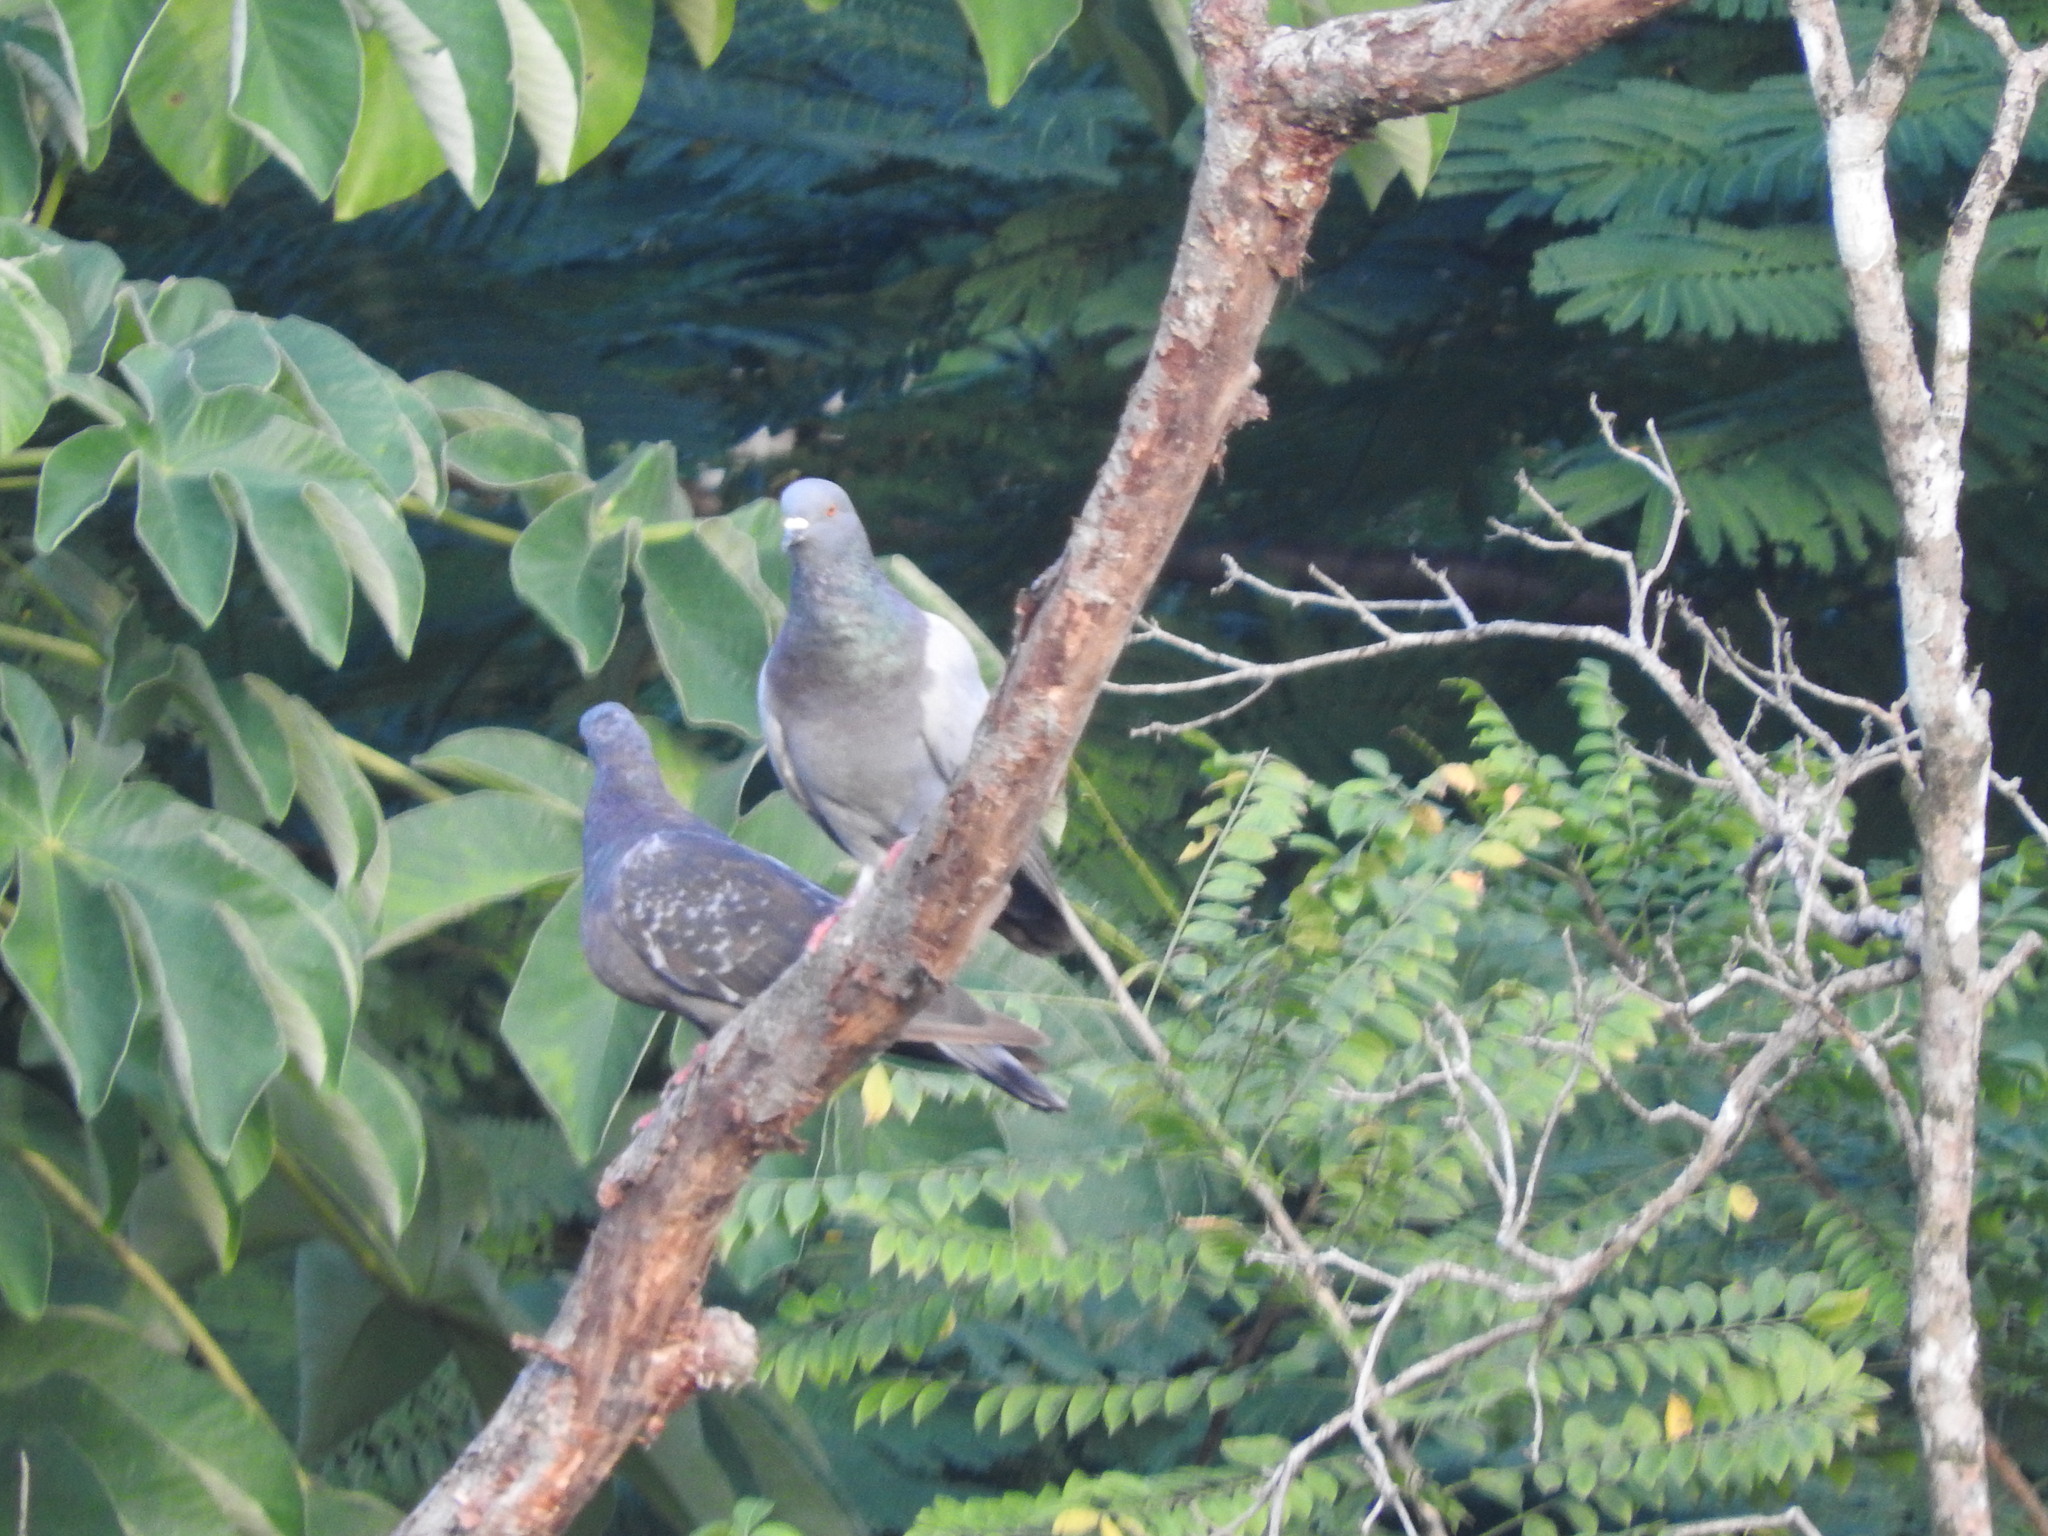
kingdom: Animalia
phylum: Chordata
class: Aves
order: Columbiformes
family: Columbidae
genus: Columba
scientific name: Columba livia
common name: Rock pigeon
